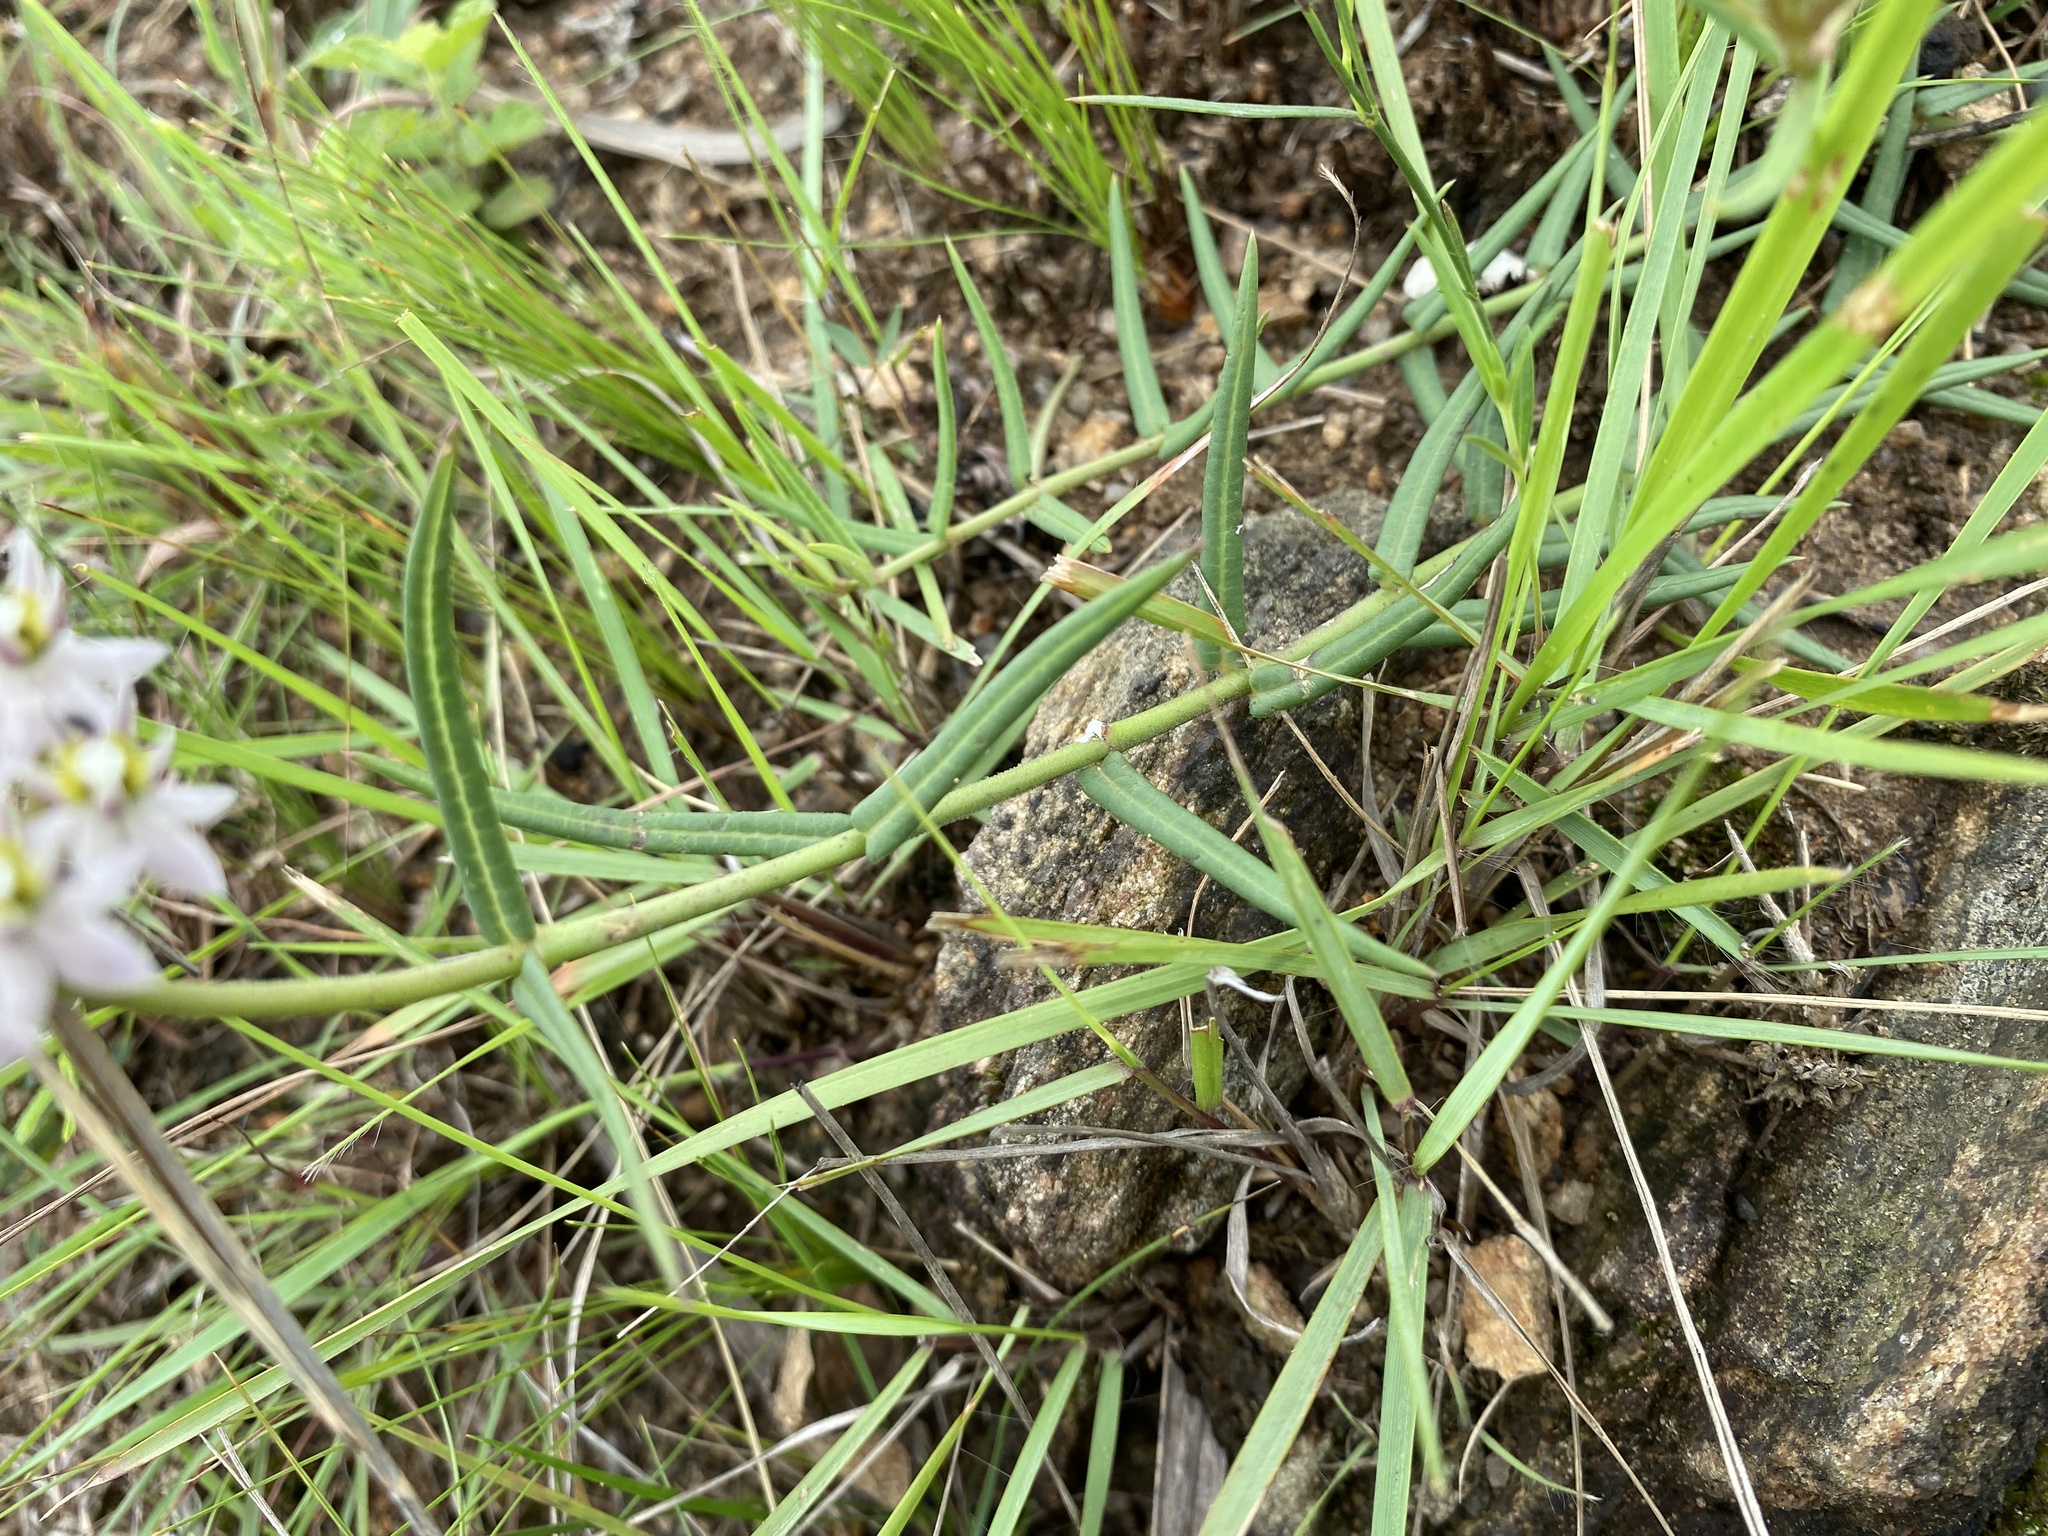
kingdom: Plantae
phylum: Tracheophyta
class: Magnoliopsida
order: Gentianales
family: Apocynaceae
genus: Asclepias
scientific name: Asclepias flexuosa
